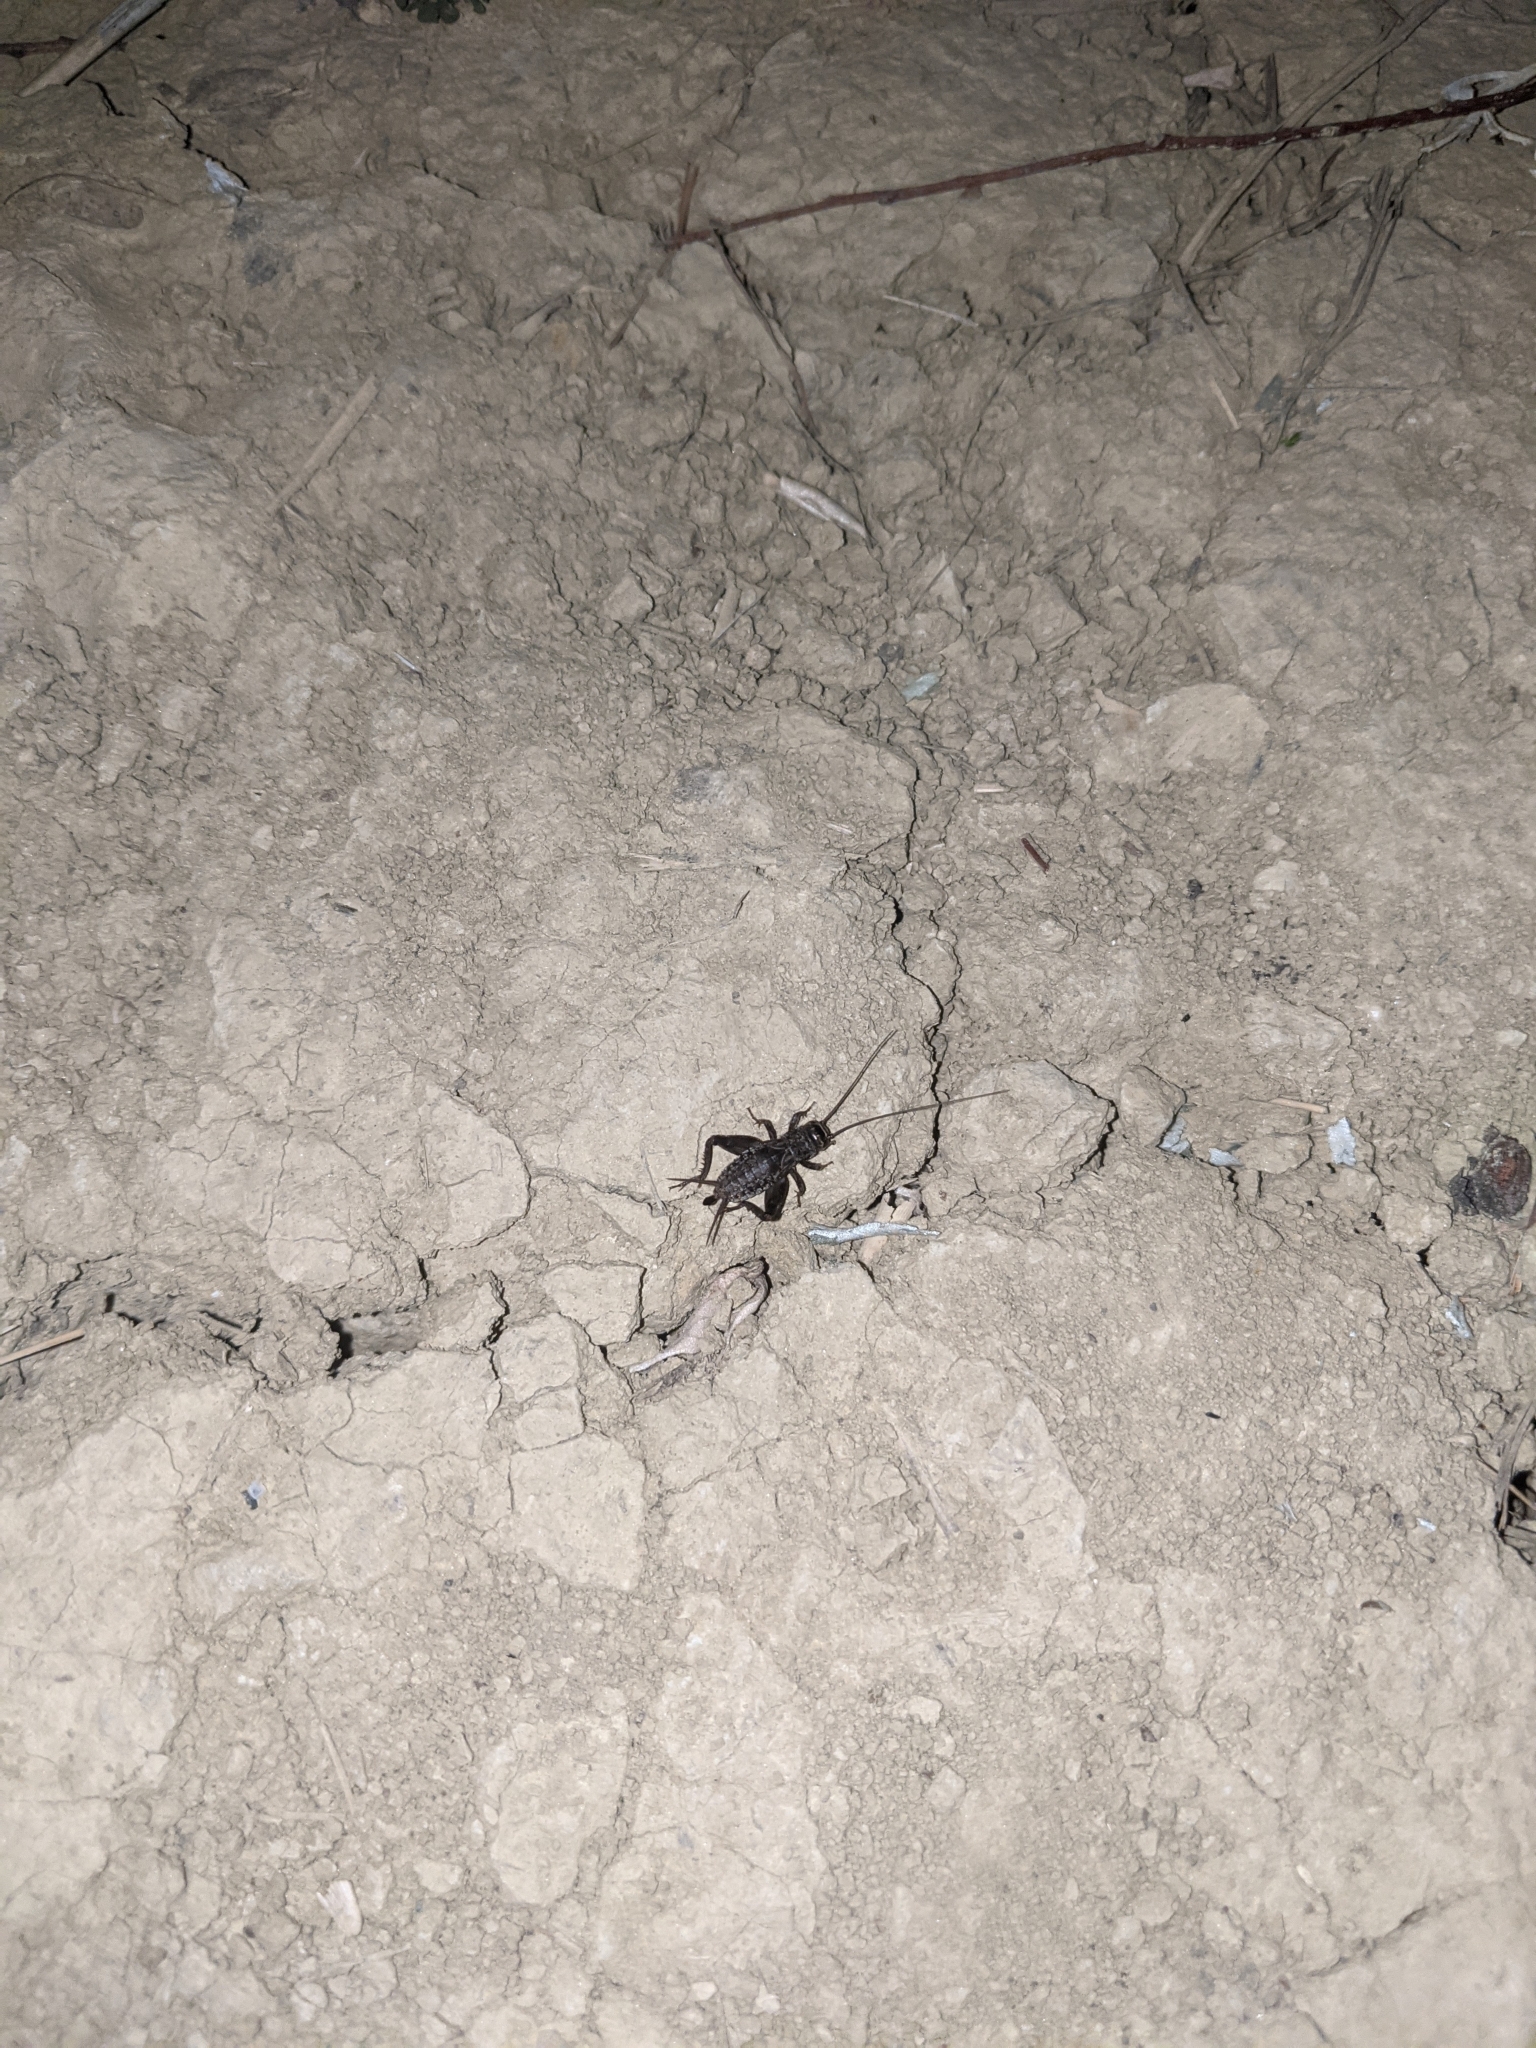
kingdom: Animalia
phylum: Arthropoda
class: Insecta
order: Orthoptera
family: Gryllidae
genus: Modicogryllus
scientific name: Modicogryllus frontalis
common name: Eastern cricket
